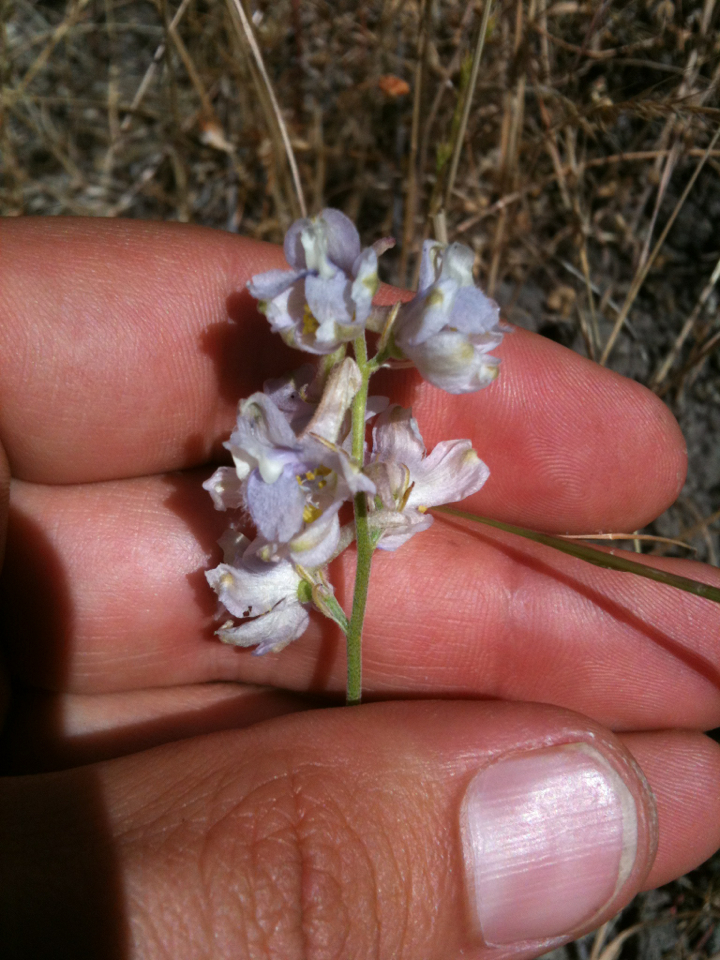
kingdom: Plantae
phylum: Tracheophyta
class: Magnoliopsida
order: Ranunculales
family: Ranunculaceae
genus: Delphinium
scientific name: Delphinium hesperium
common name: Western larkspur
